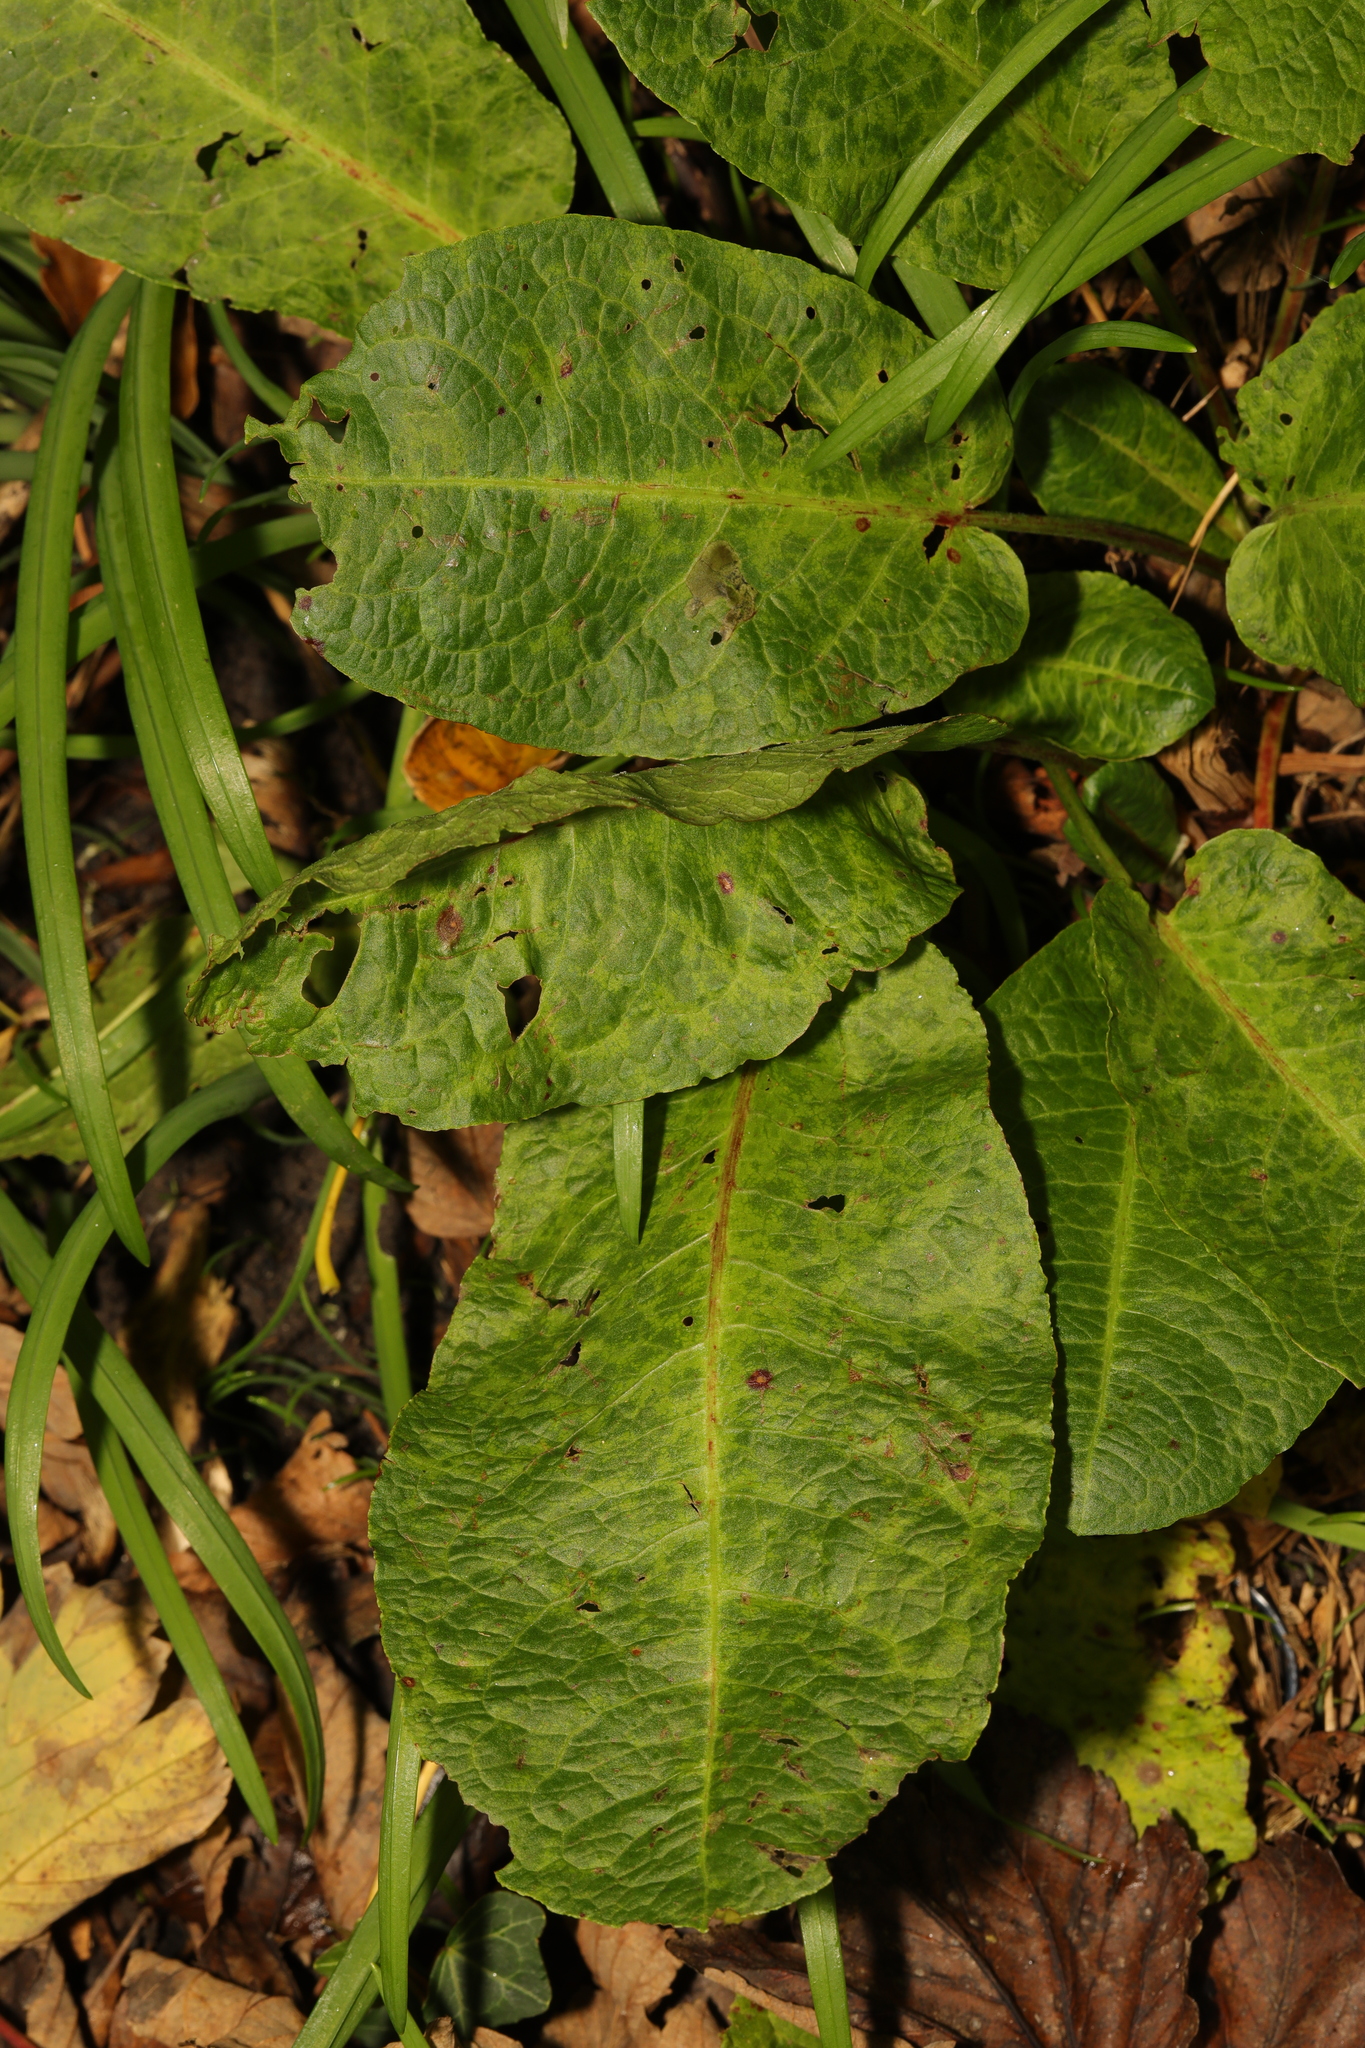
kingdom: Plantae
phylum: Tracheophyta
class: Magnoliopsida
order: Caryophyllales
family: Polygonaceae
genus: Rumex
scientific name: Rumex obtusifolius
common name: Bitter dock
